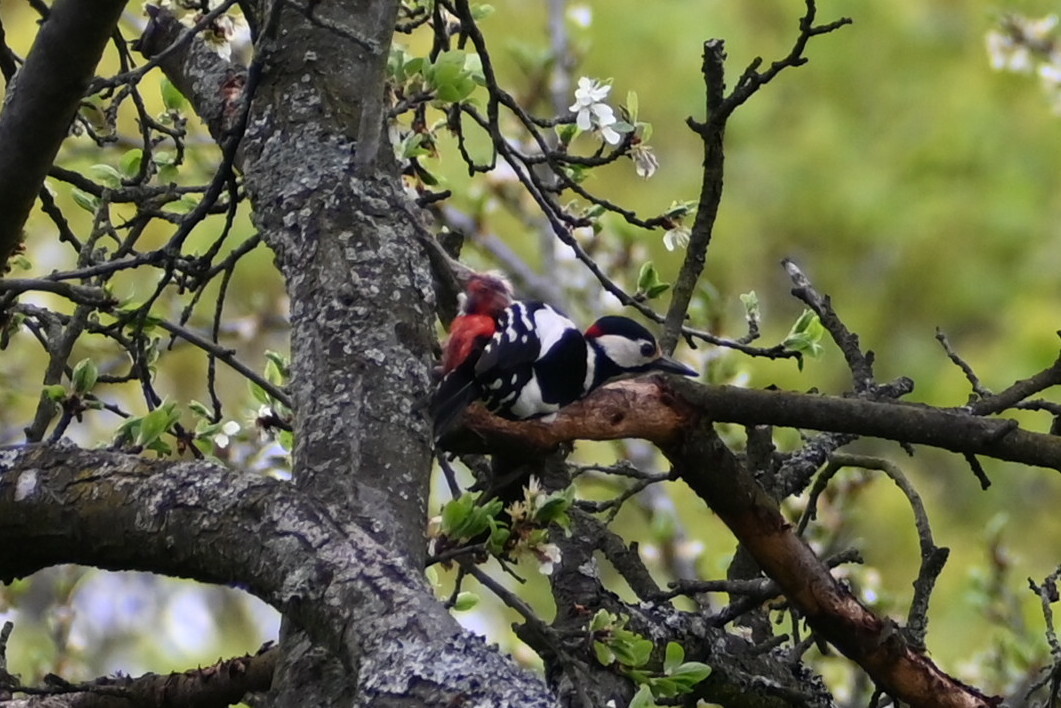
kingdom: Animalia
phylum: Chordata
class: Aves
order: Piciformes
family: Picidae
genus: Dendrocopos
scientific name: Dendrocopos major
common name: Great spotted woodpecker
